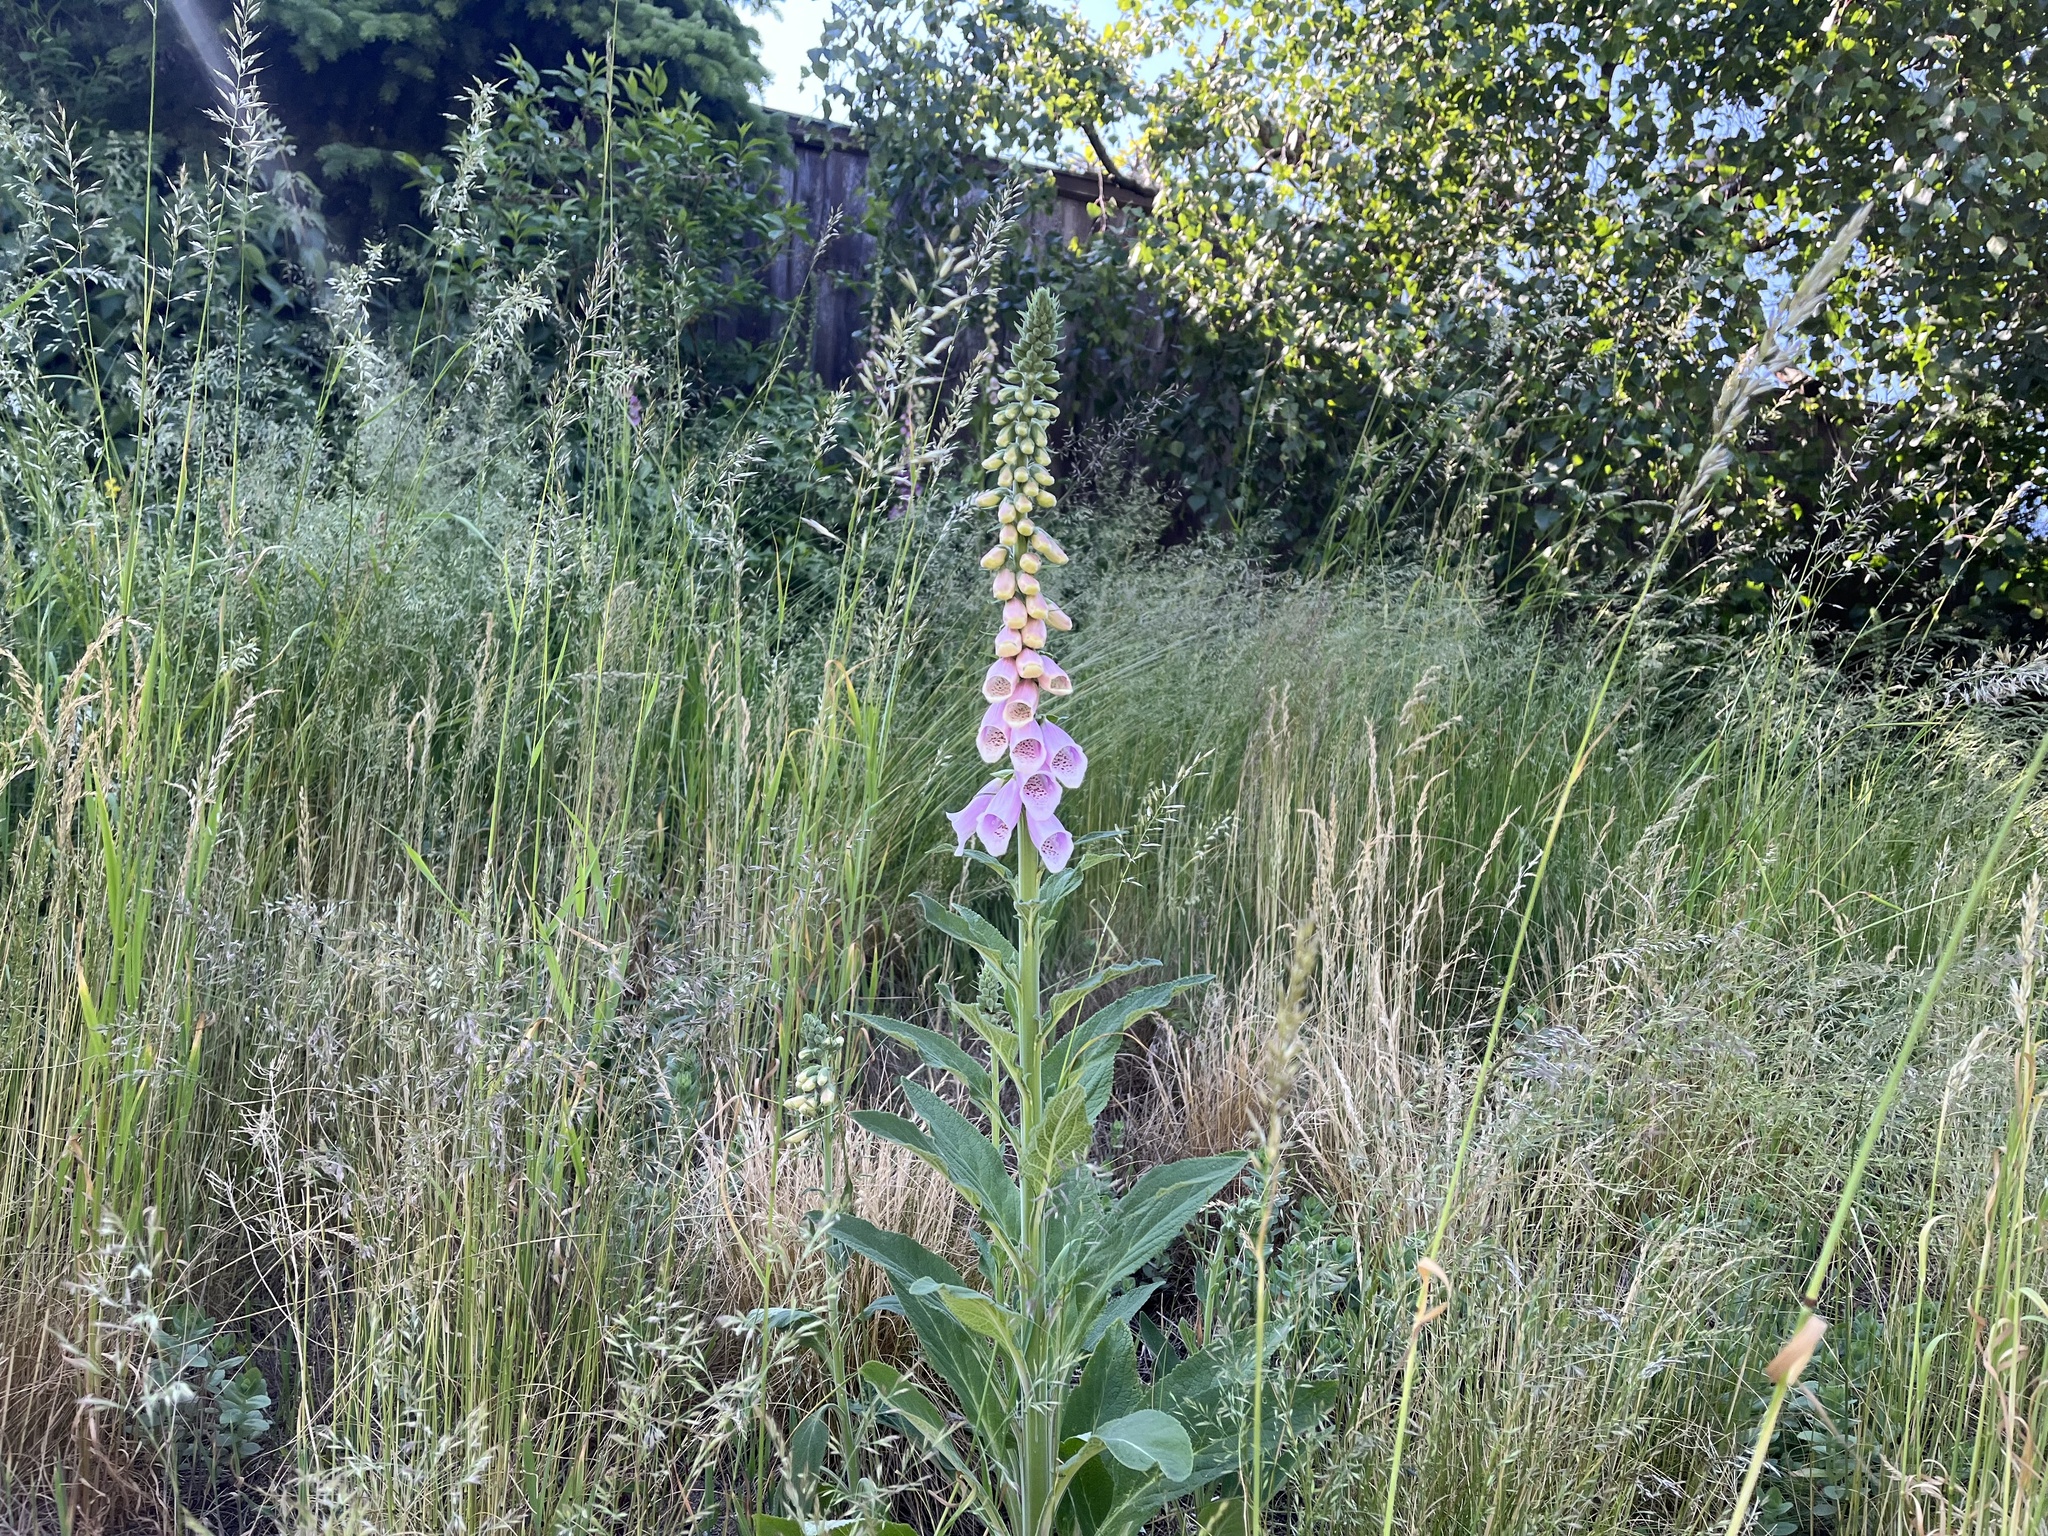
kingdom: Plantae
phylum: Tracheophyta
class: Magnoliopsida
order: Lamiales
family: Plantaginaceae
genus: Digitalis
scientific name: Digitalis purpurea
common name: Foxglove
